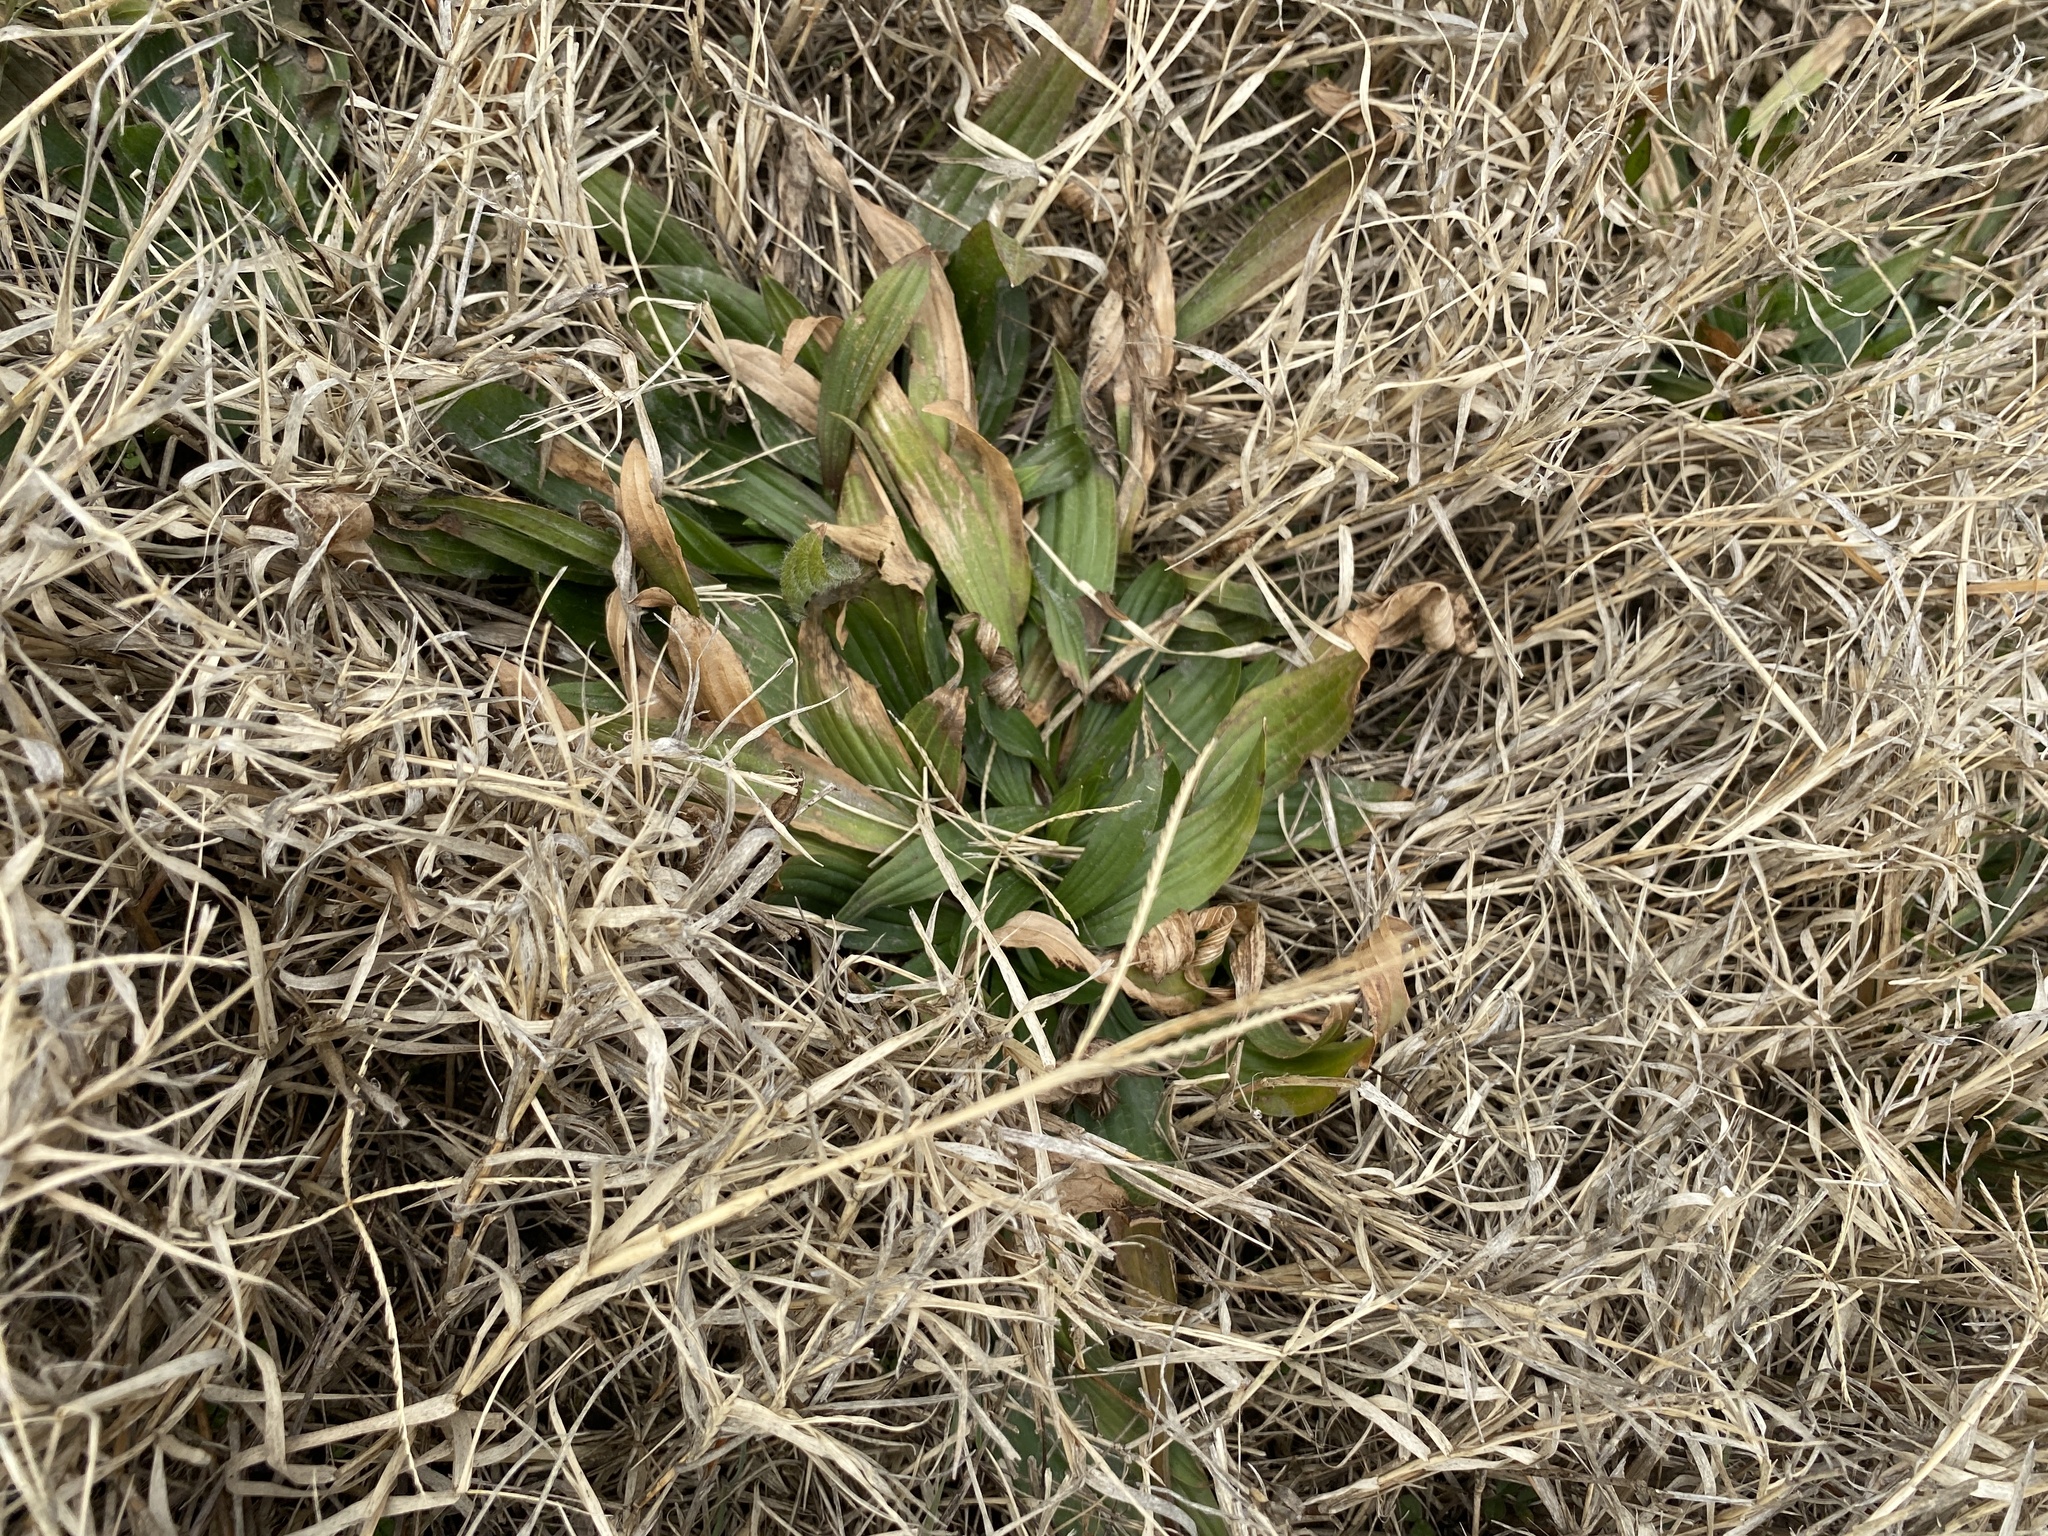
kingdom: Plantae
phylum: Tracheophyta
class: Magnoliopsida
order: Lamiales
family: Plantaginaceae
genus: Plantago
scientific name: Plantago lanceolata
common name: Ribwort plantain
